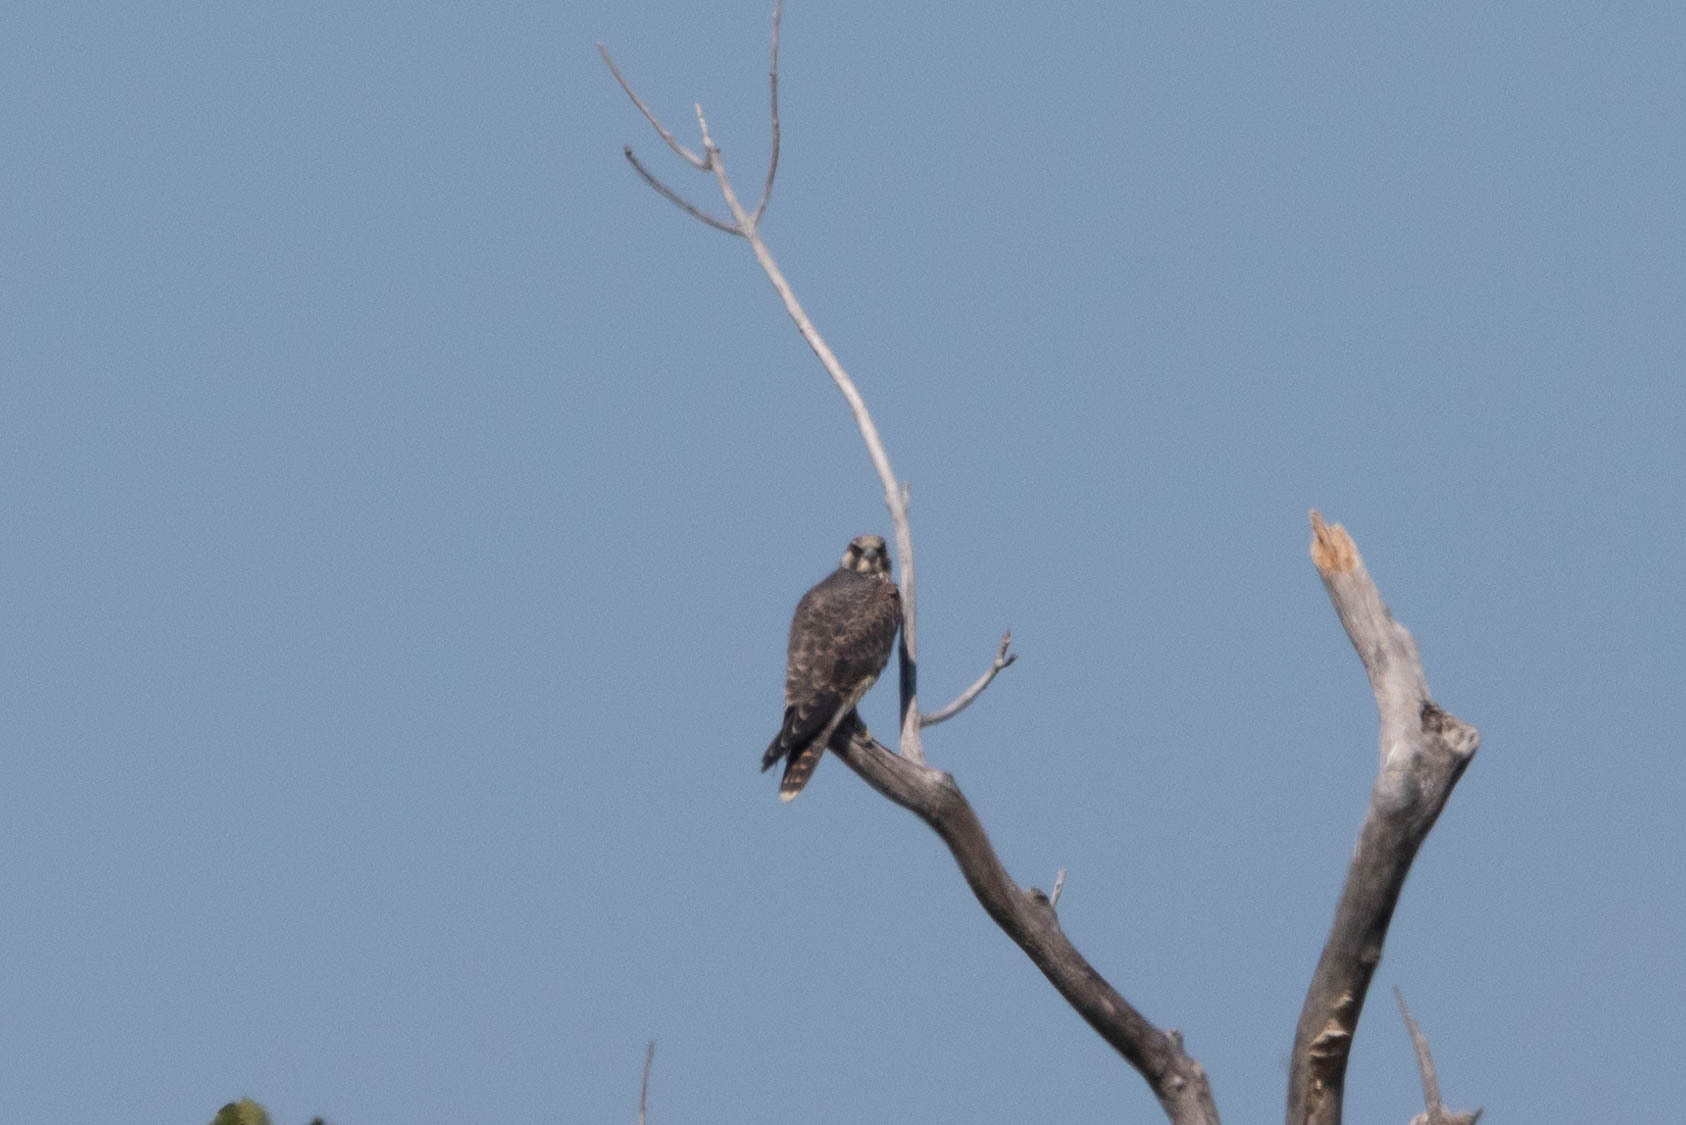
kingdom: Animalia
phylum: Chordata
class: Aves
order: Falconiformes
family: Falconidae
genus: Falco
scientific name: Falco peregrinus
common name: Peregrine falcon
